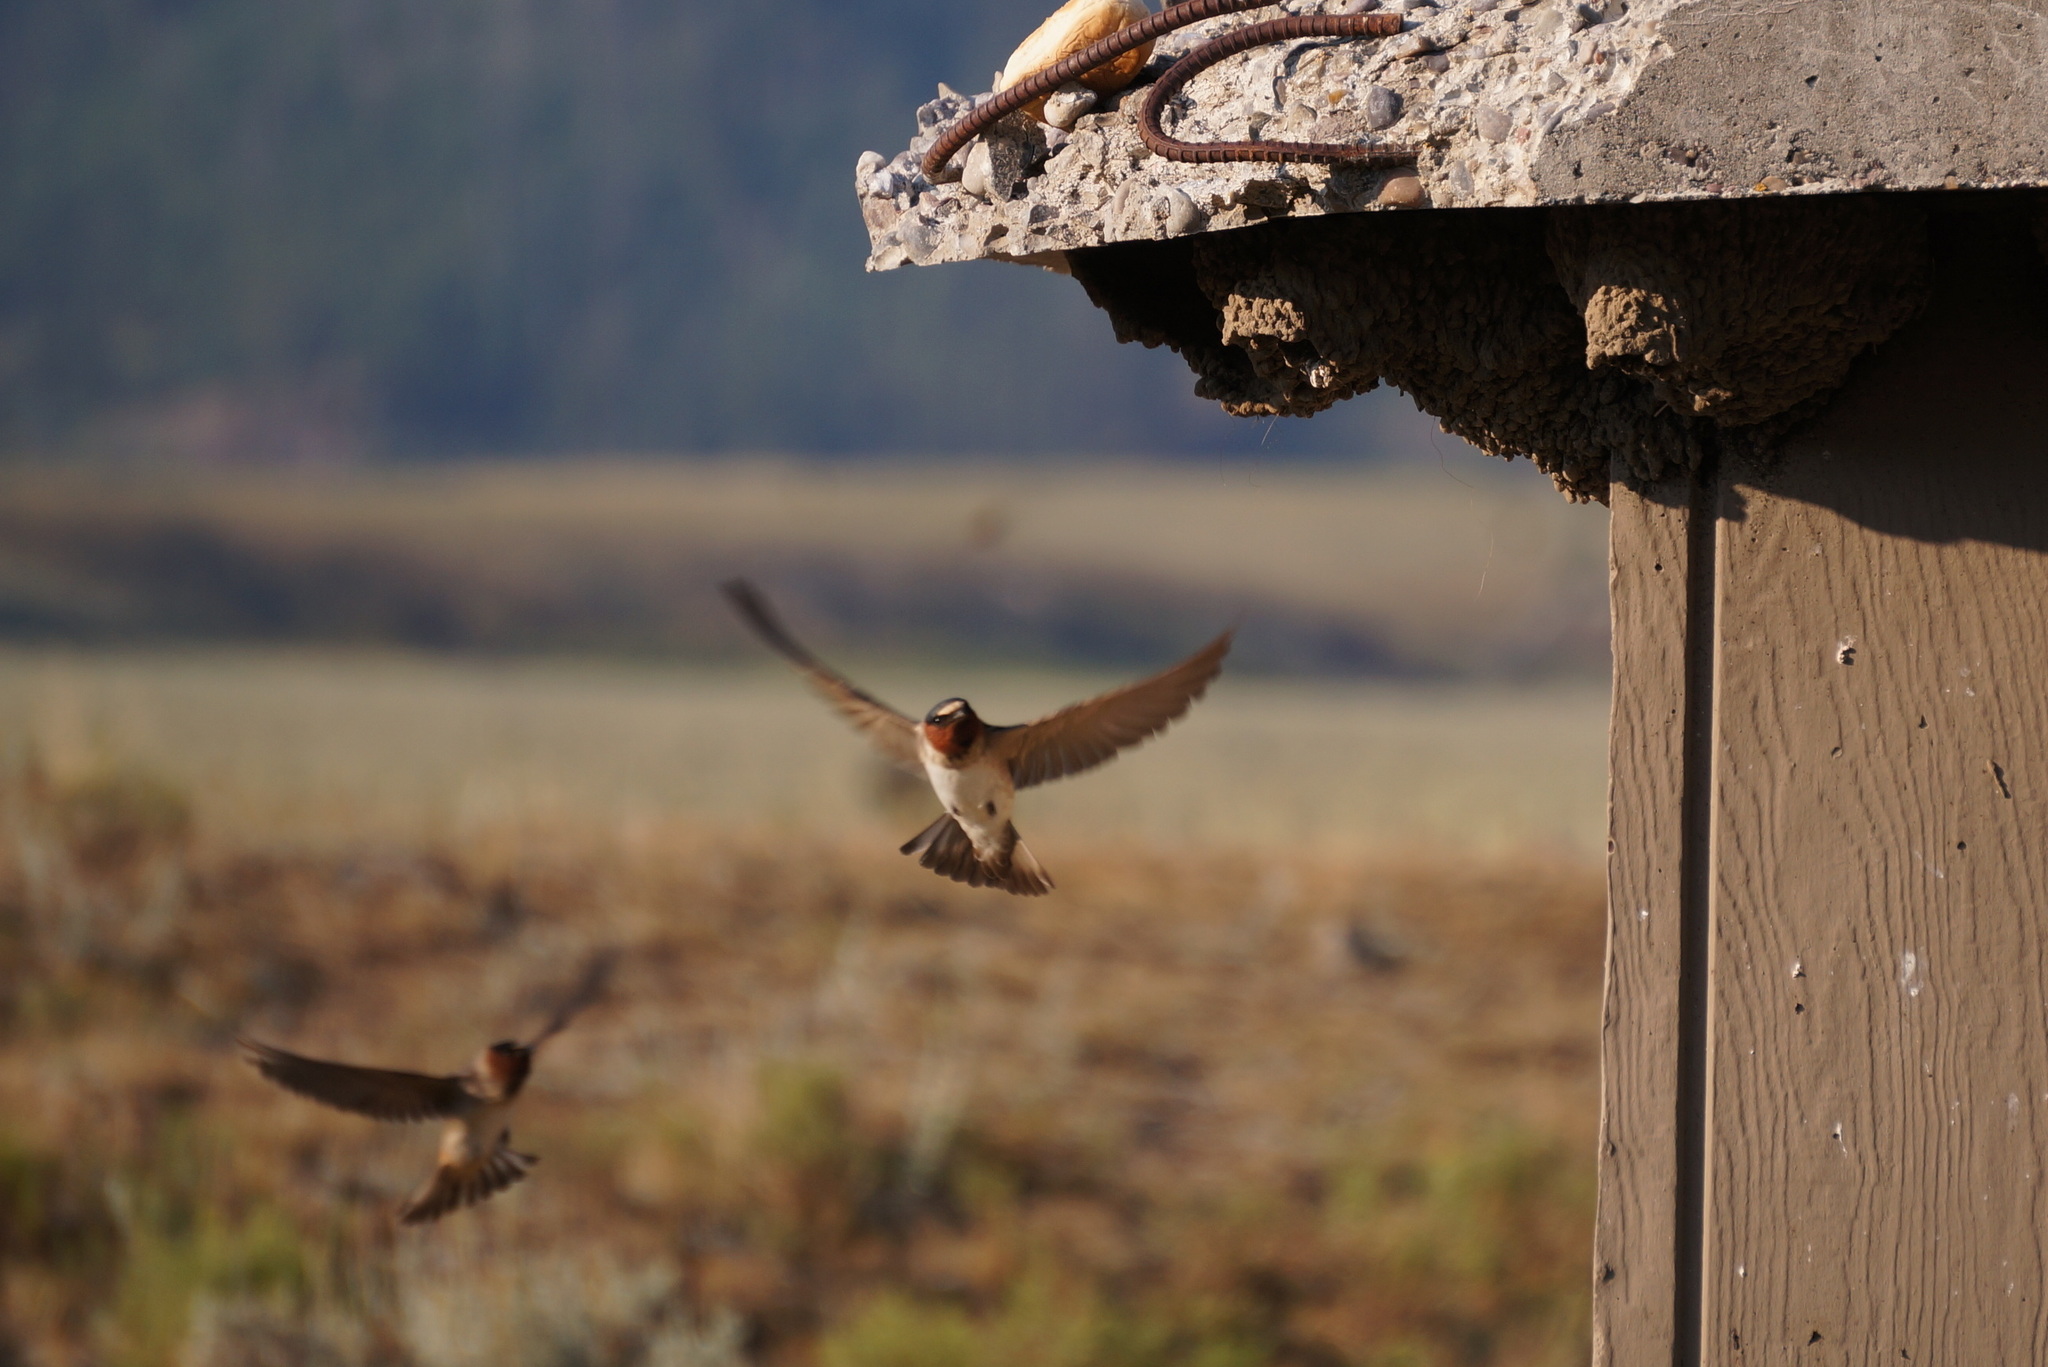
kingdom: Animalia
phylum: Chordata
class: Aves
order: Passeriformes
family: Hirundinidae
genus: Petrochelidon
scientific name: Petrochelidon pyrrhonota
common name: American cliff swallow
